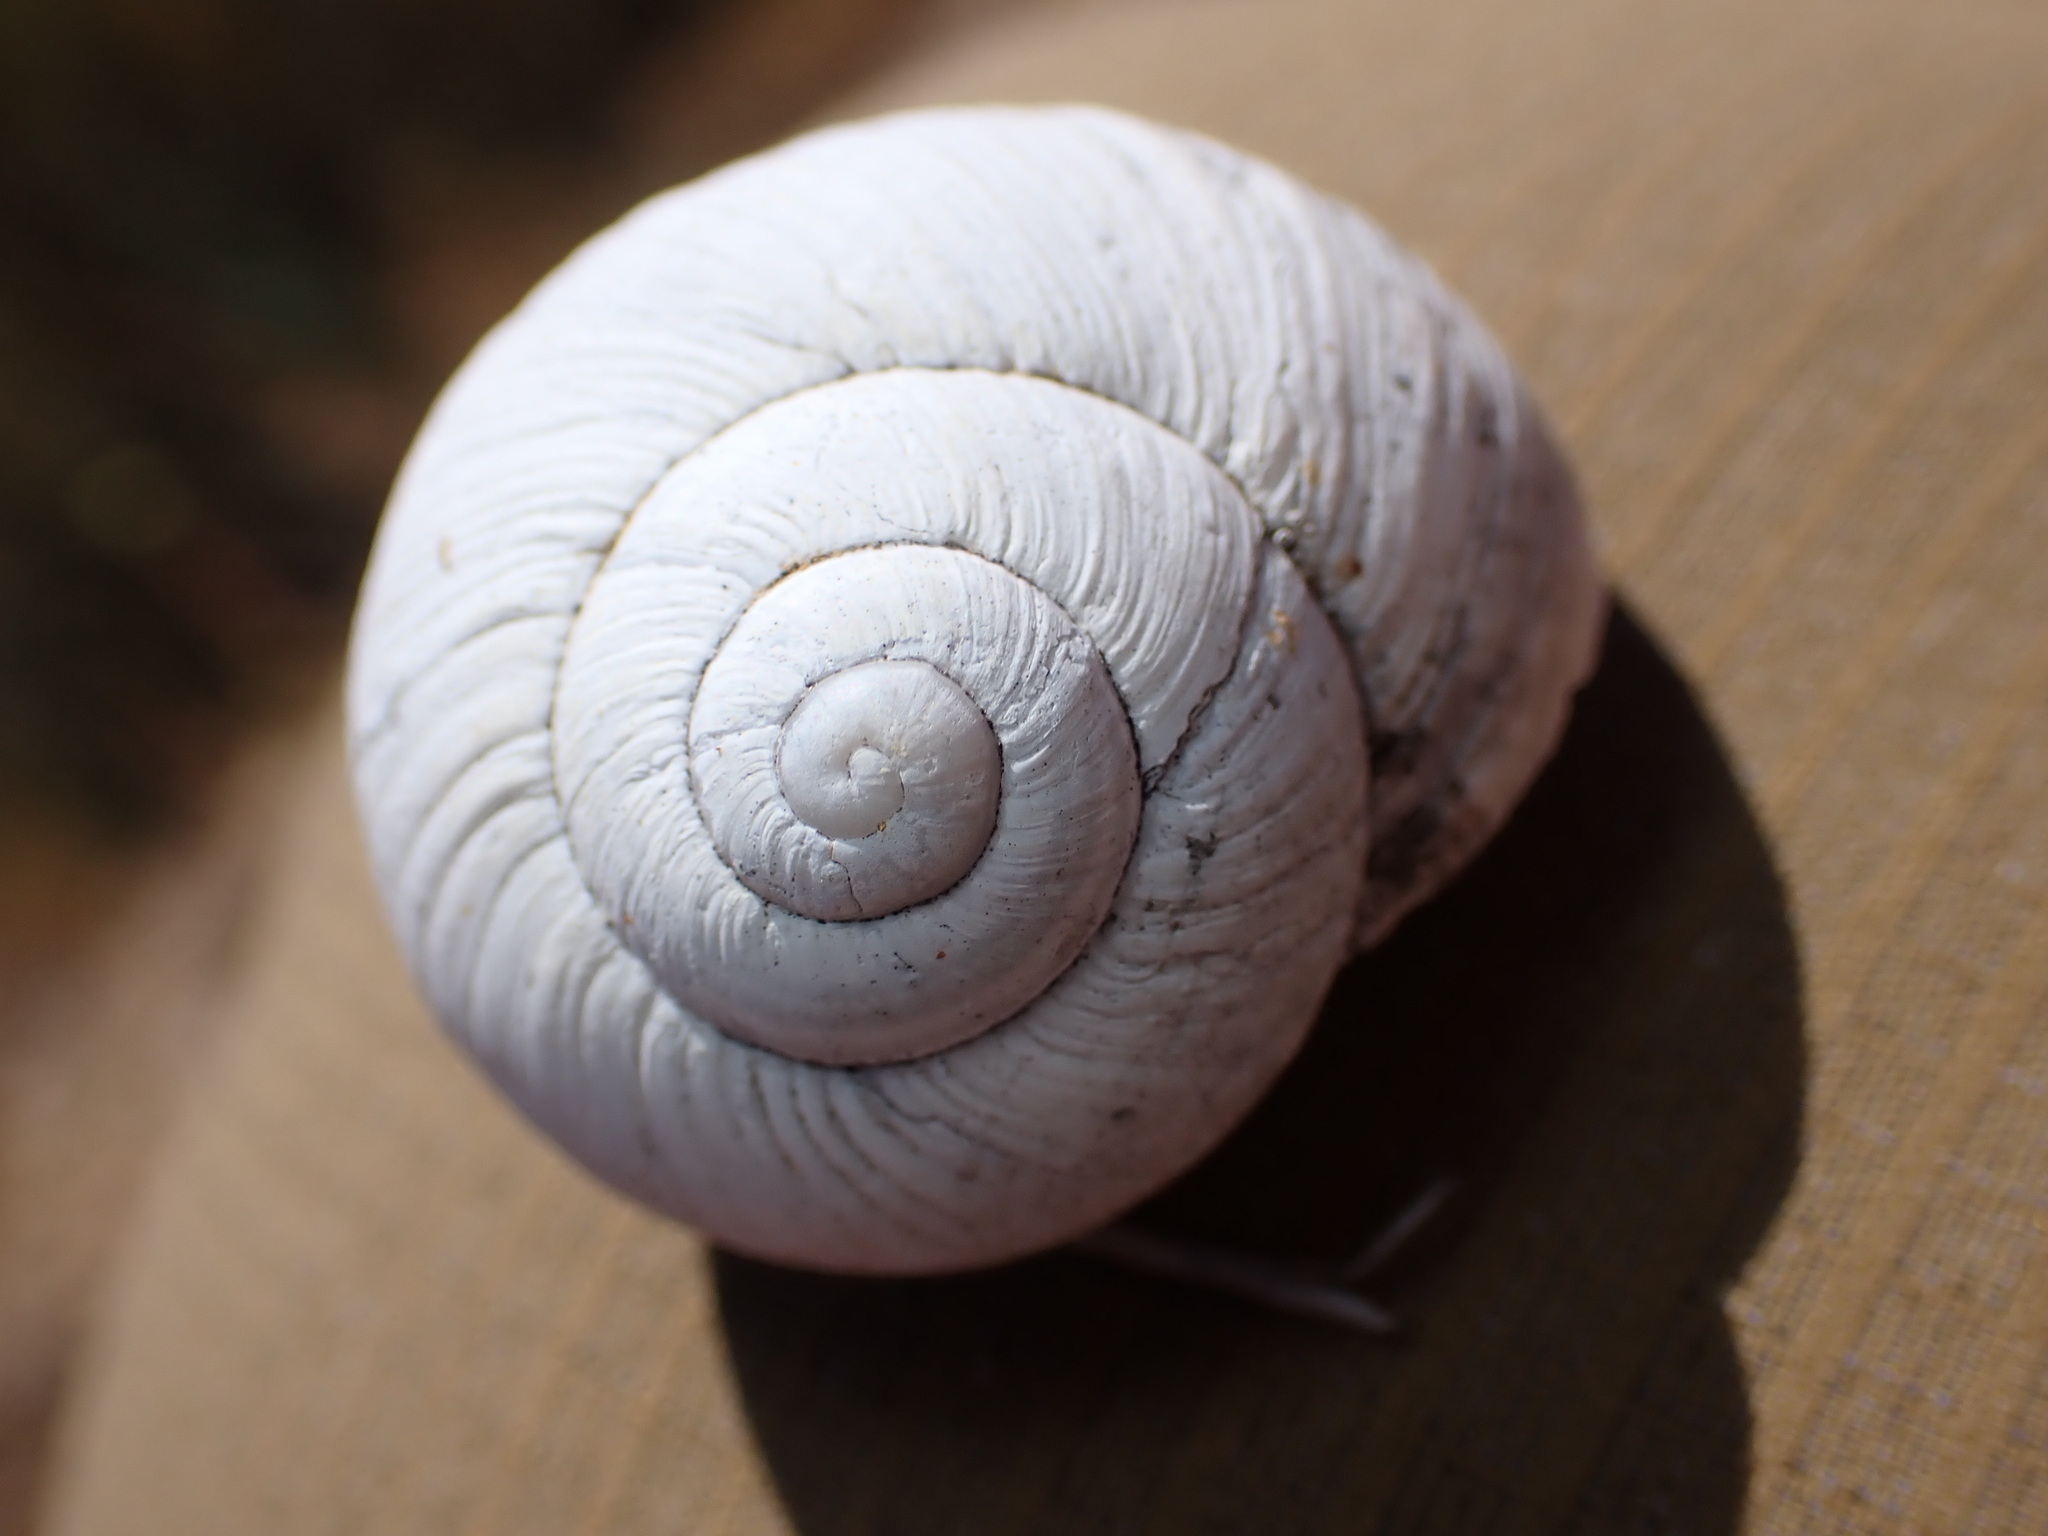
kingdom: Animalia
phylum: Mollusca
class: Gastropoda
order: Stylommatophora
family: Helicidae
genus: Helix
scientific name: Helix melanostoma
